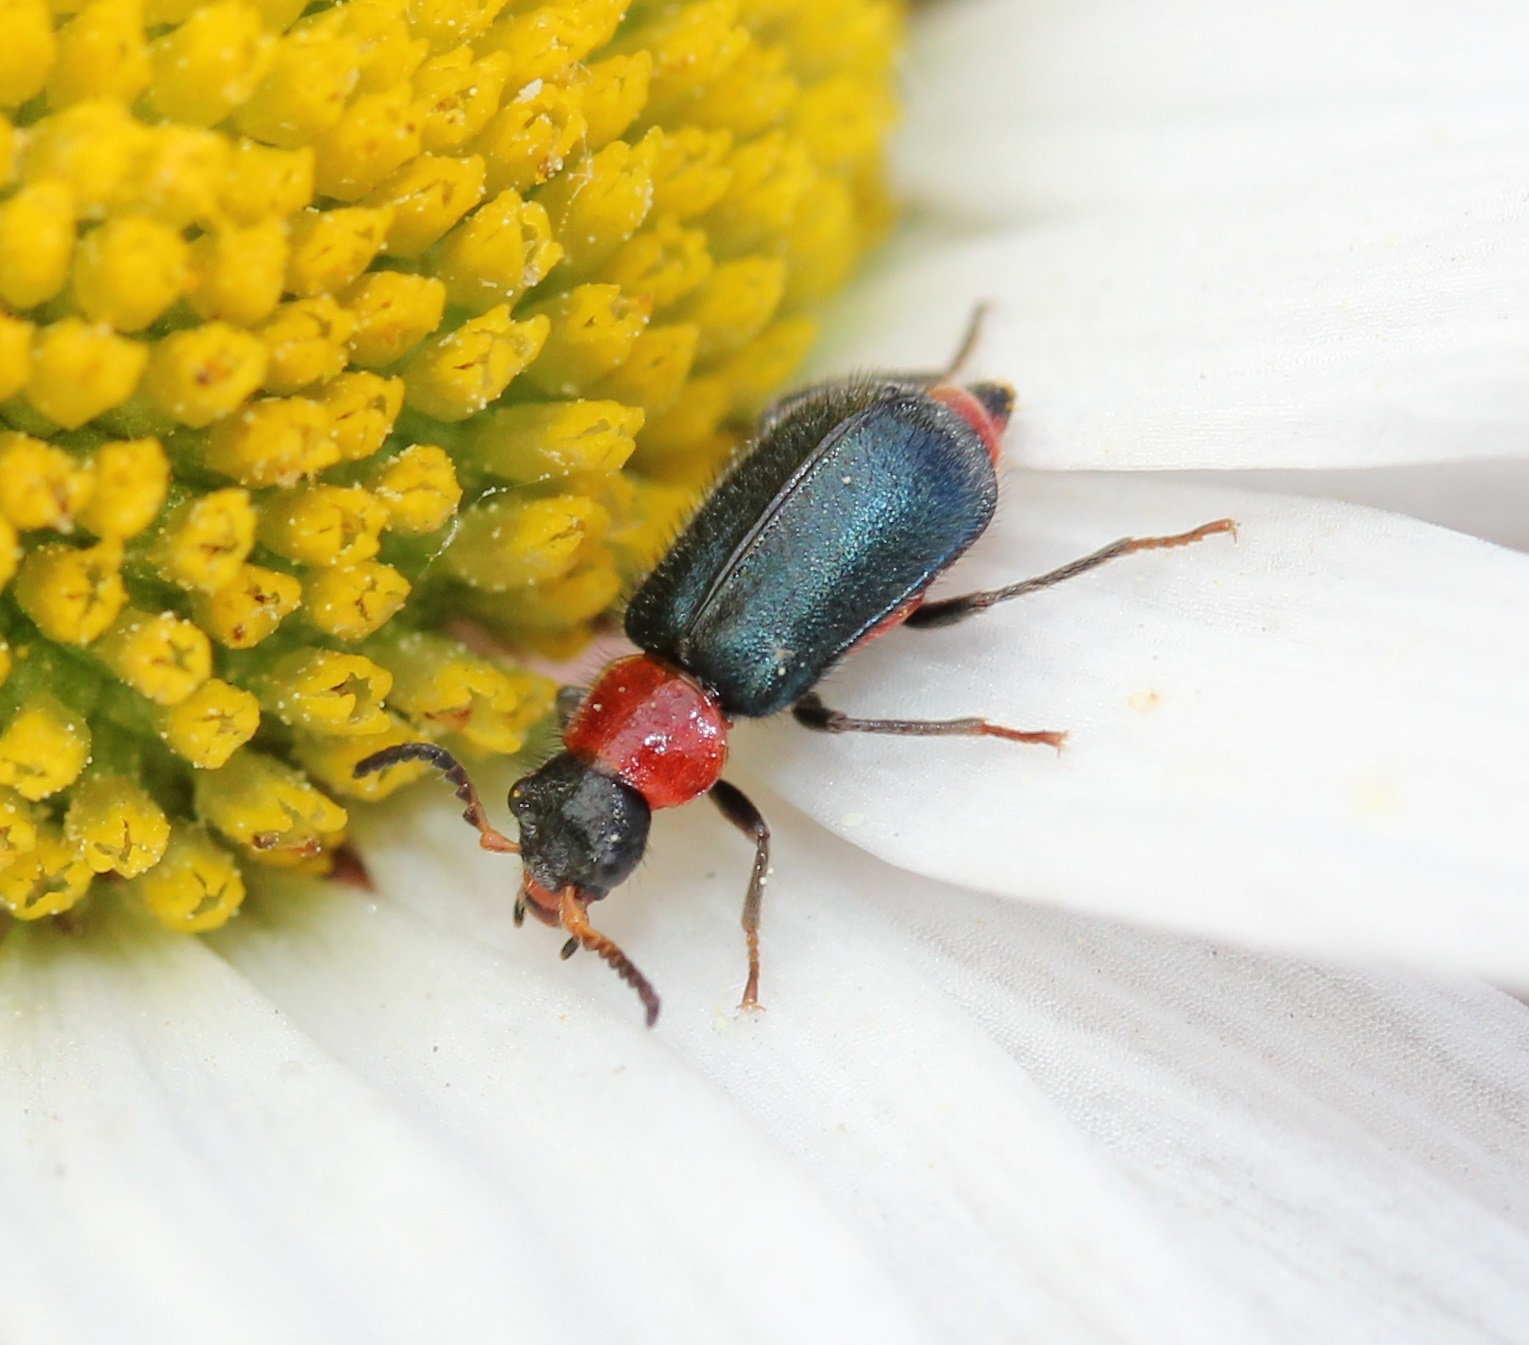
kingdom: Animalia
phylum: Arthropoda
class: Insecta
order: Coleoptera
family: Melyridae
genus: Collops
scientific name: Collops tricolor
